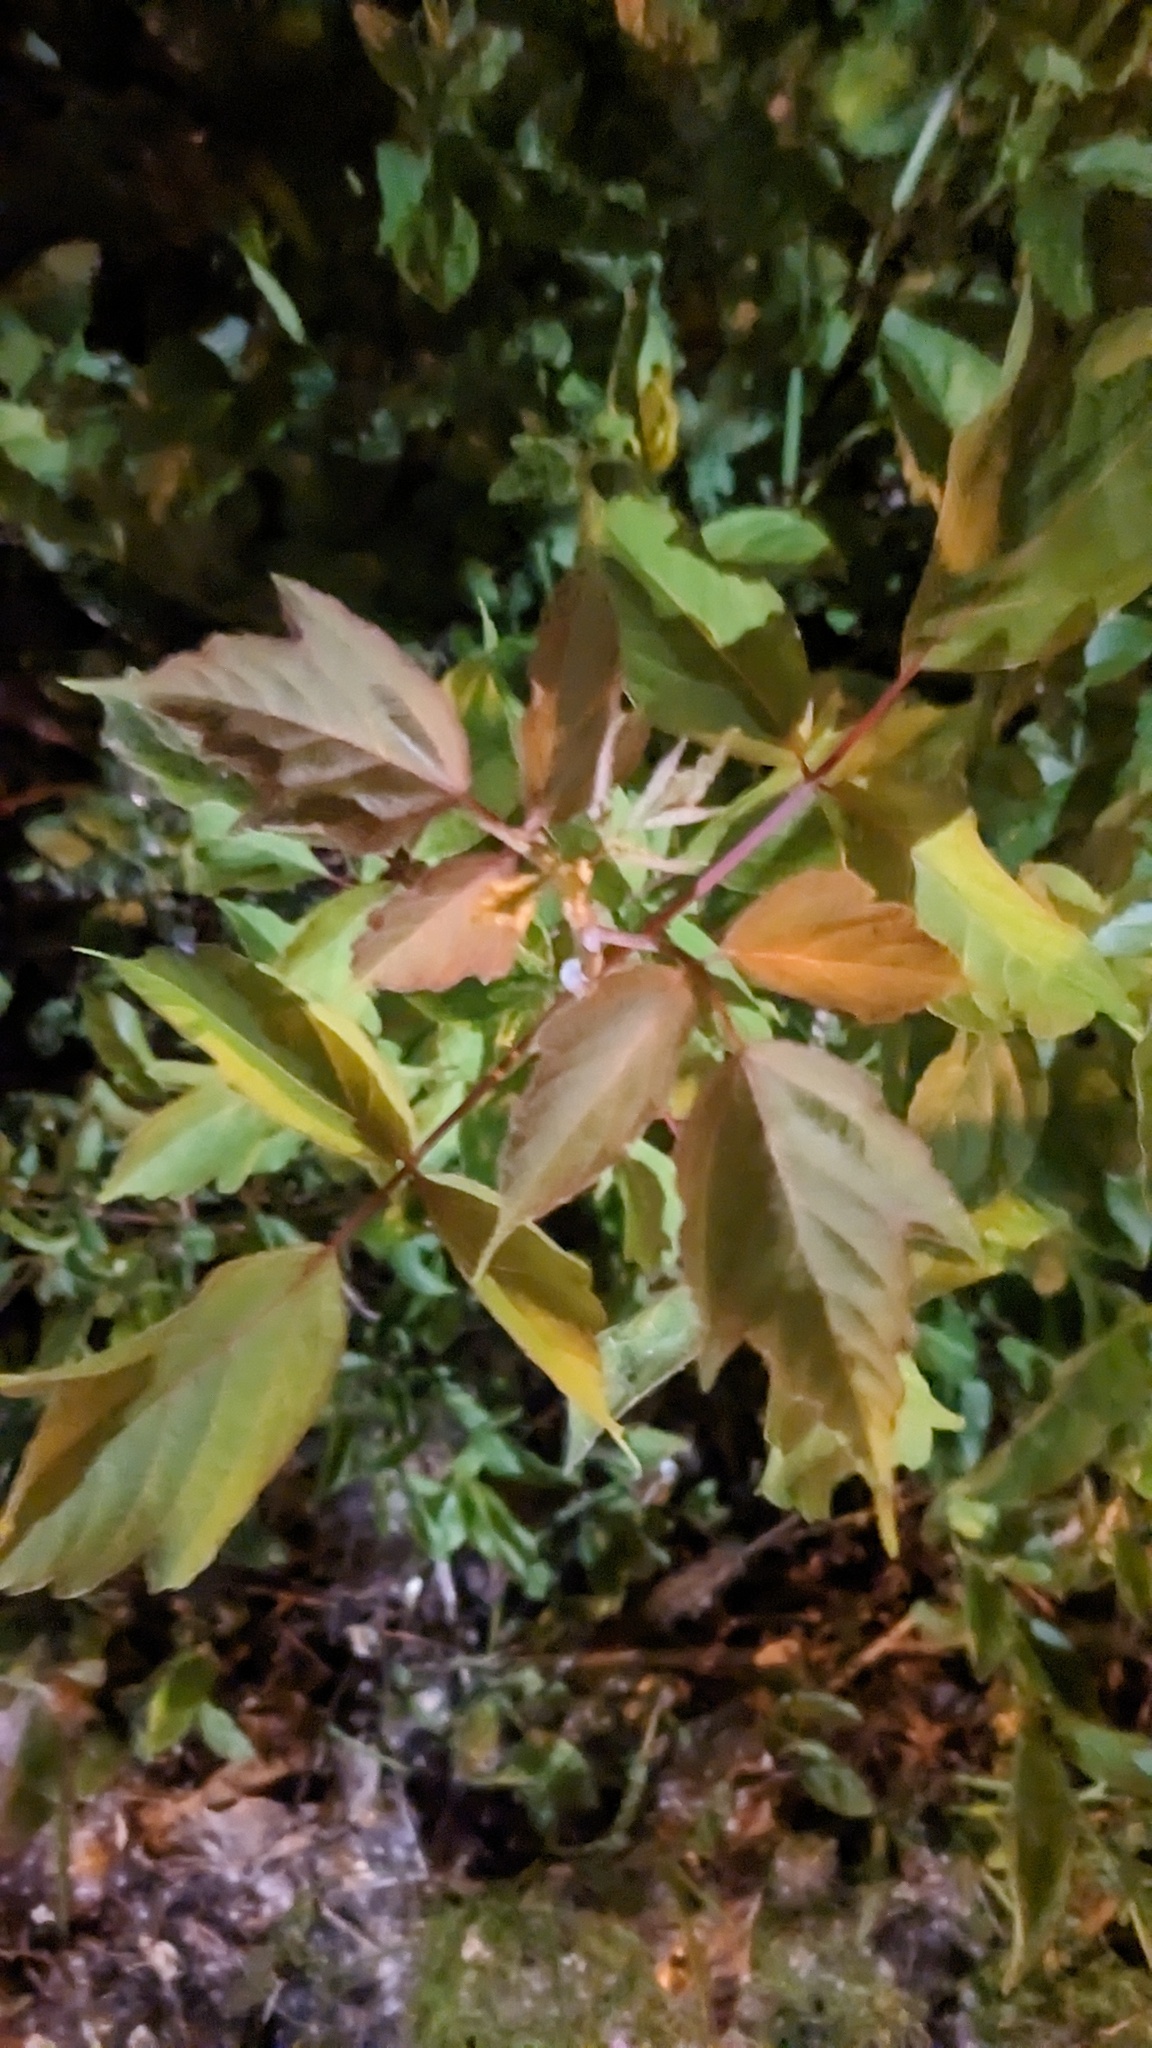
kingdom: Plantae
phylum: Tracheophyta
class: Magnoliopsida
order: Sapindales
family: Sapindaceae
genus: Acer
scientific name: Acer negundo
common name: Ashleaf maple
